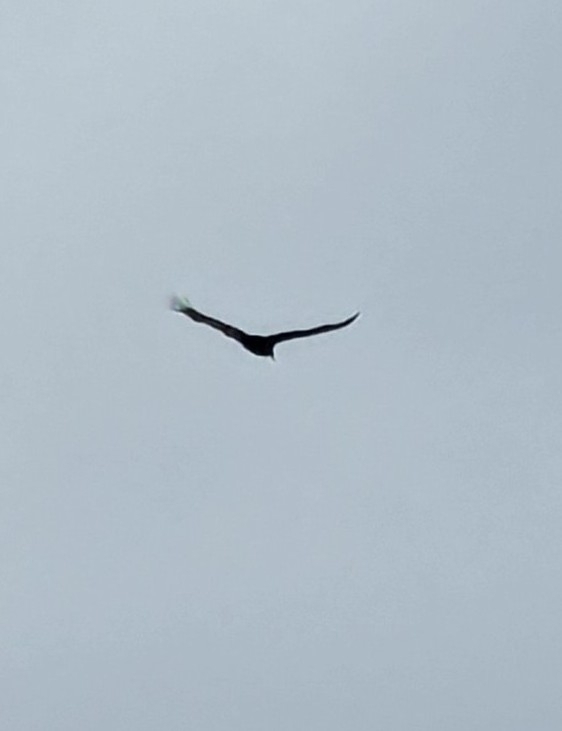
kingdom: Animalia
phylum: Chordata
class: Aves
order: Accipitriformes
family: Cathartidae
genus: Cathartes
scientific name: Cathartes aura
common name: Turkey vulture
